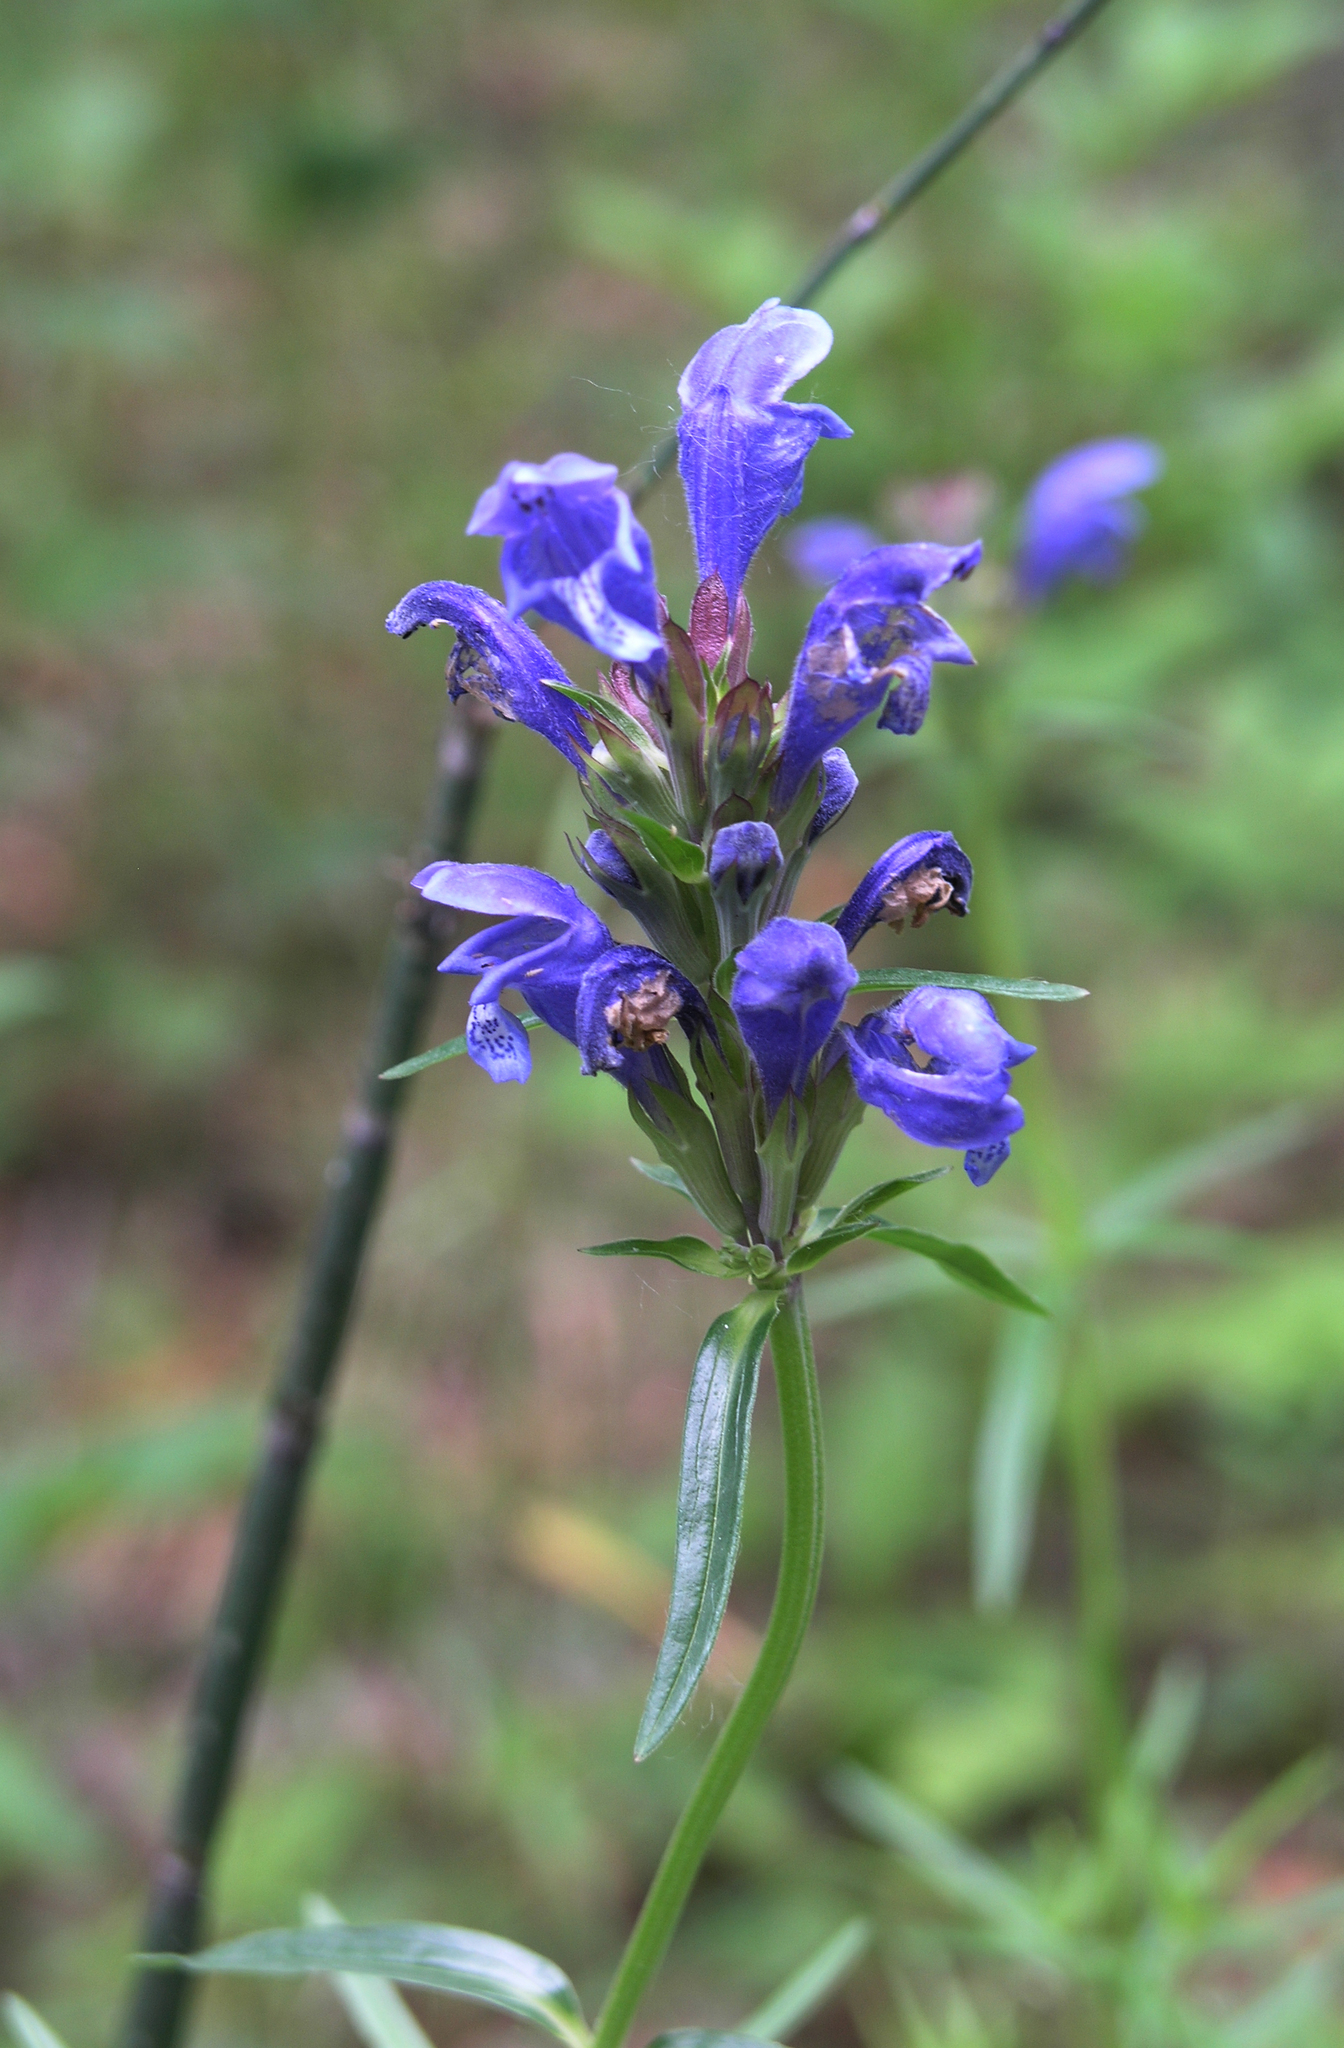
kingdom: Plantae
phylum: Tracheophyta
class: Magnoliopsida
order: Lamiales
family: Lamiaceae
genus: Dracocephalum
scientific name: Dracocephalum ruyschiana
